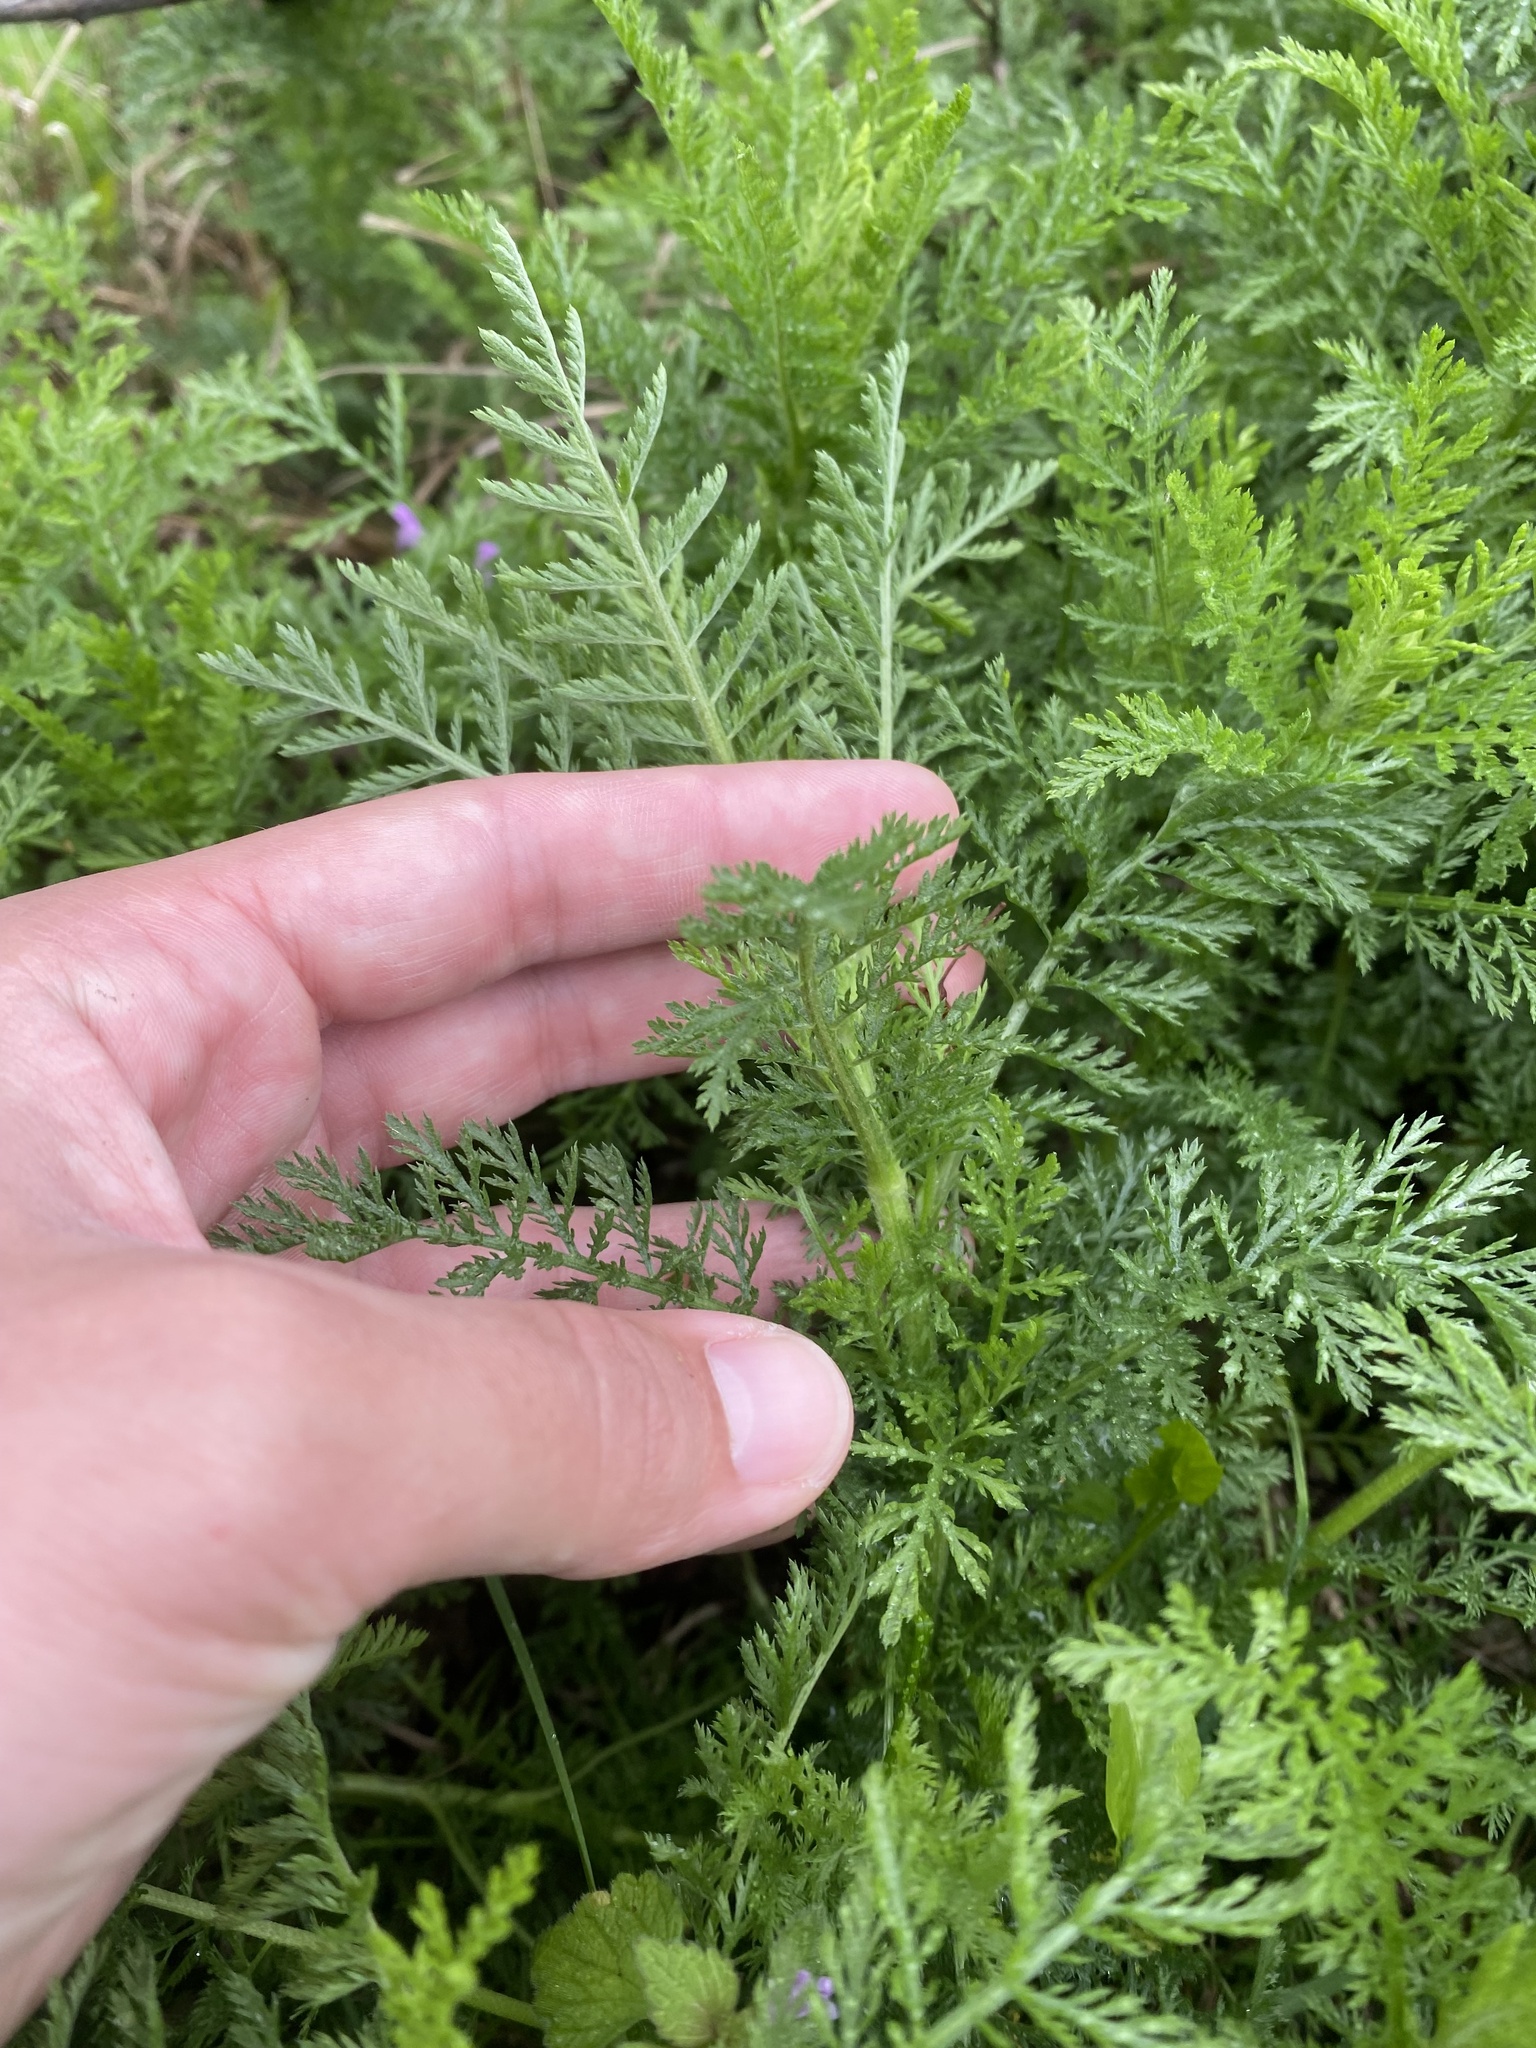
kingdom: Plantae
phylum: Tracheophyta
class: Magnoliopsida
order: Asterales
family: Asteraceae
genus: Achillea
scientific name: Achillea nobilis
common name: Noble yarrow
